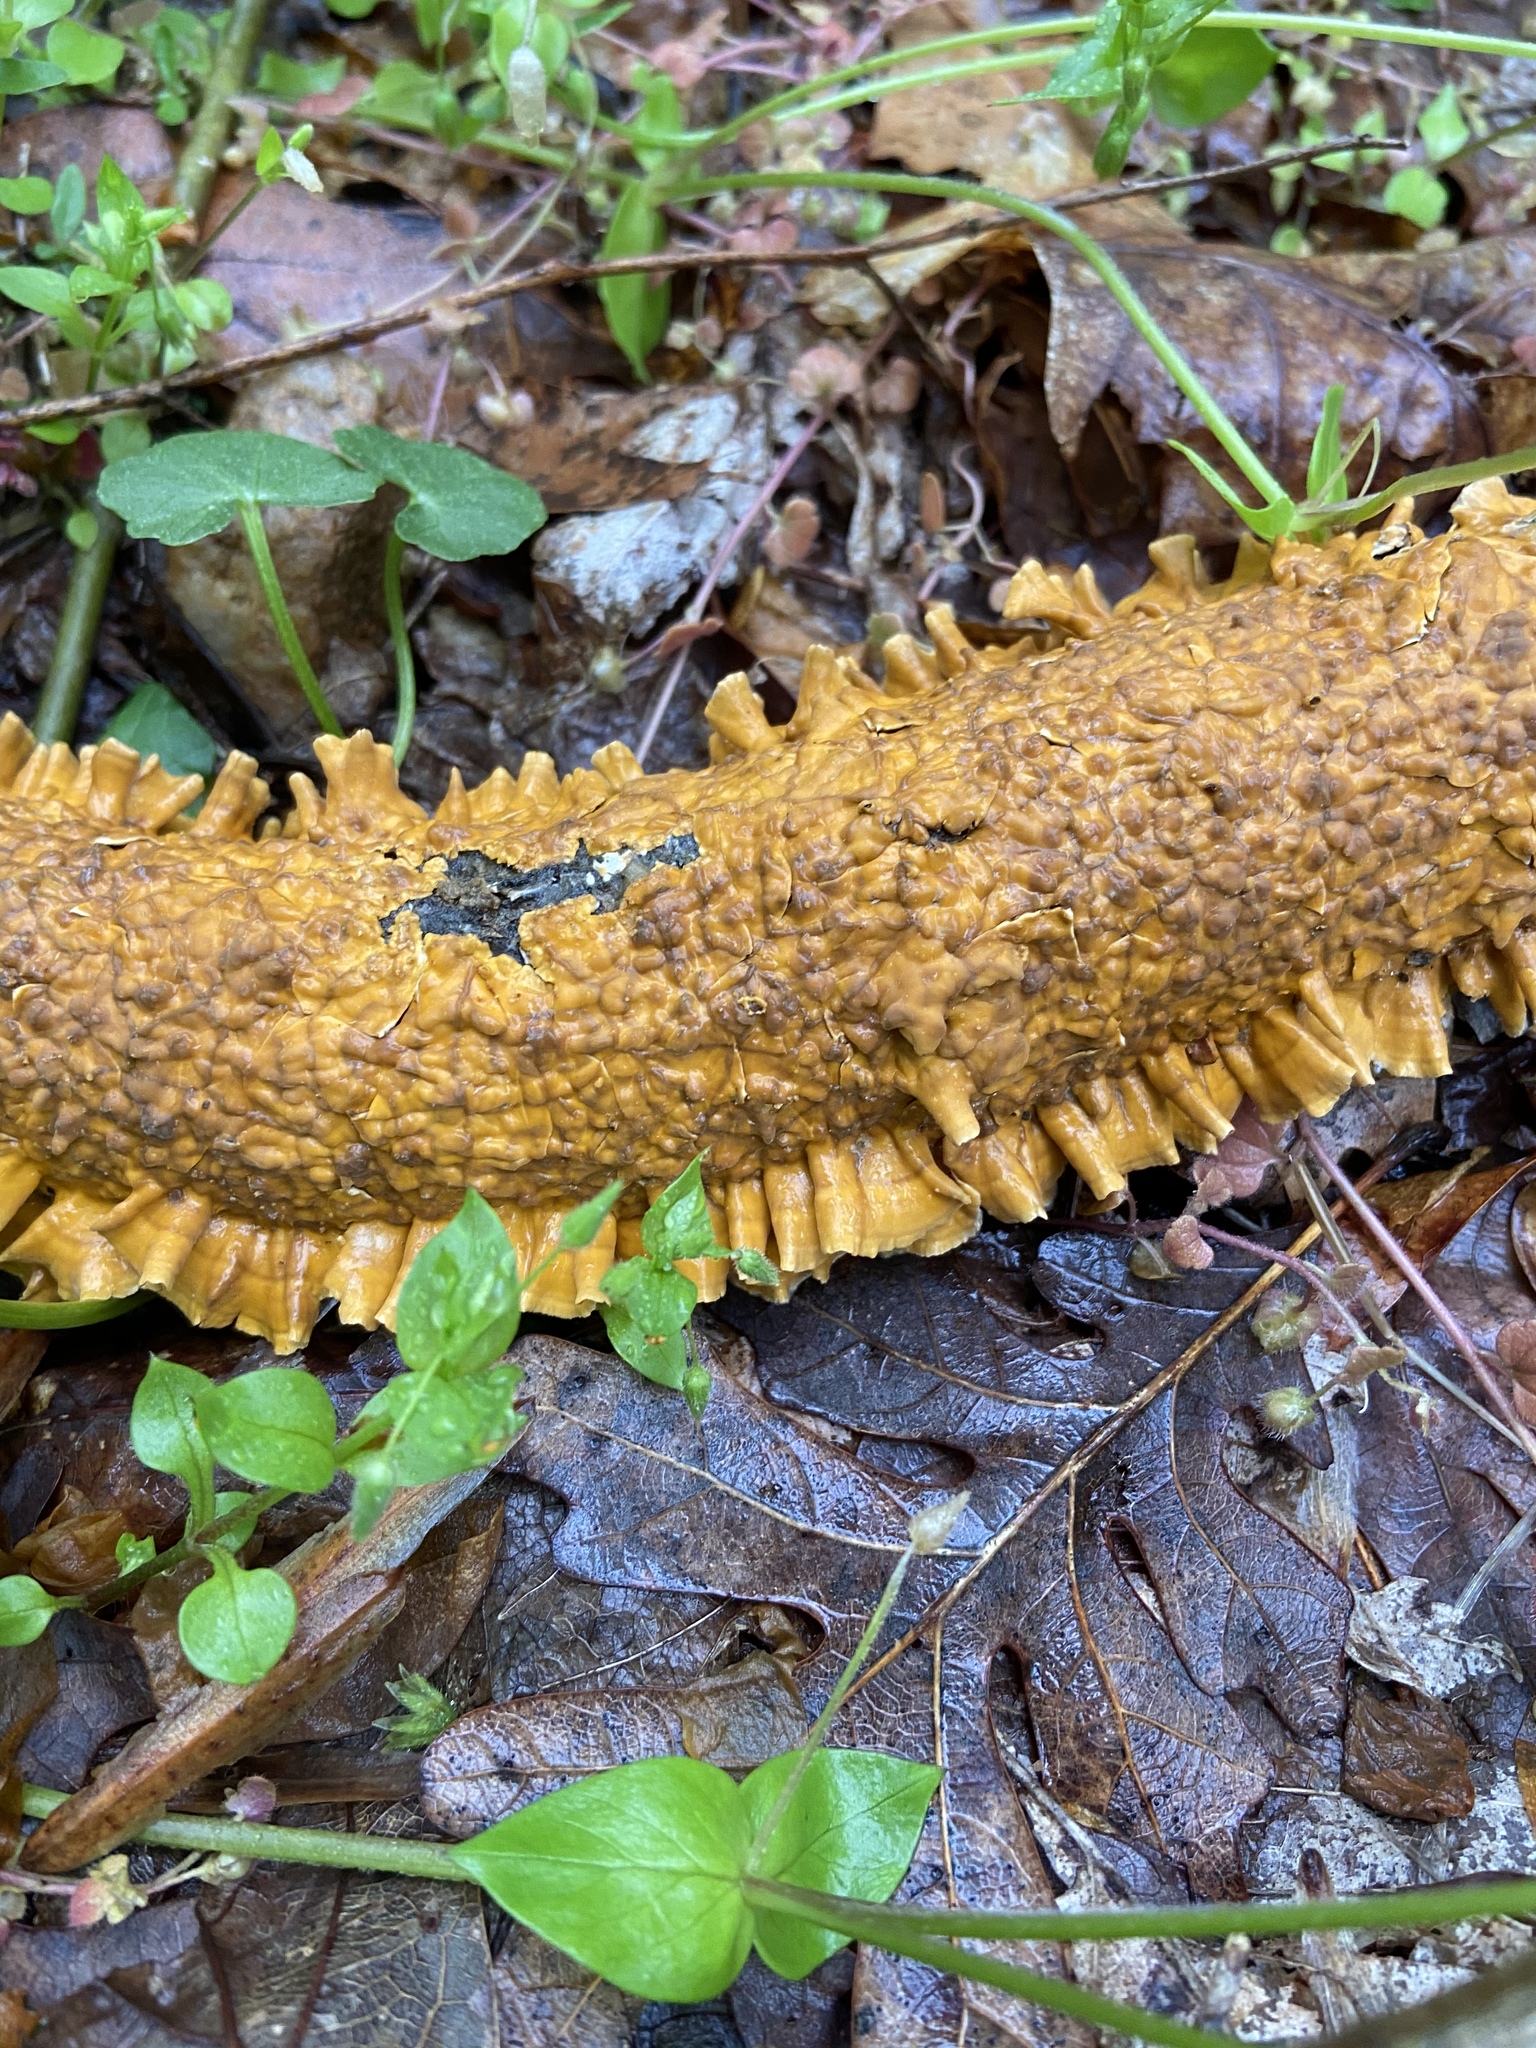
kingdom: Fungi
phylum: Basidiomycota
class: Agaricomycetes
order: Russulales
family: Stereaceae
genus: Stereum
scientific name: Stereum complicatum
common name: Crowded parchment
